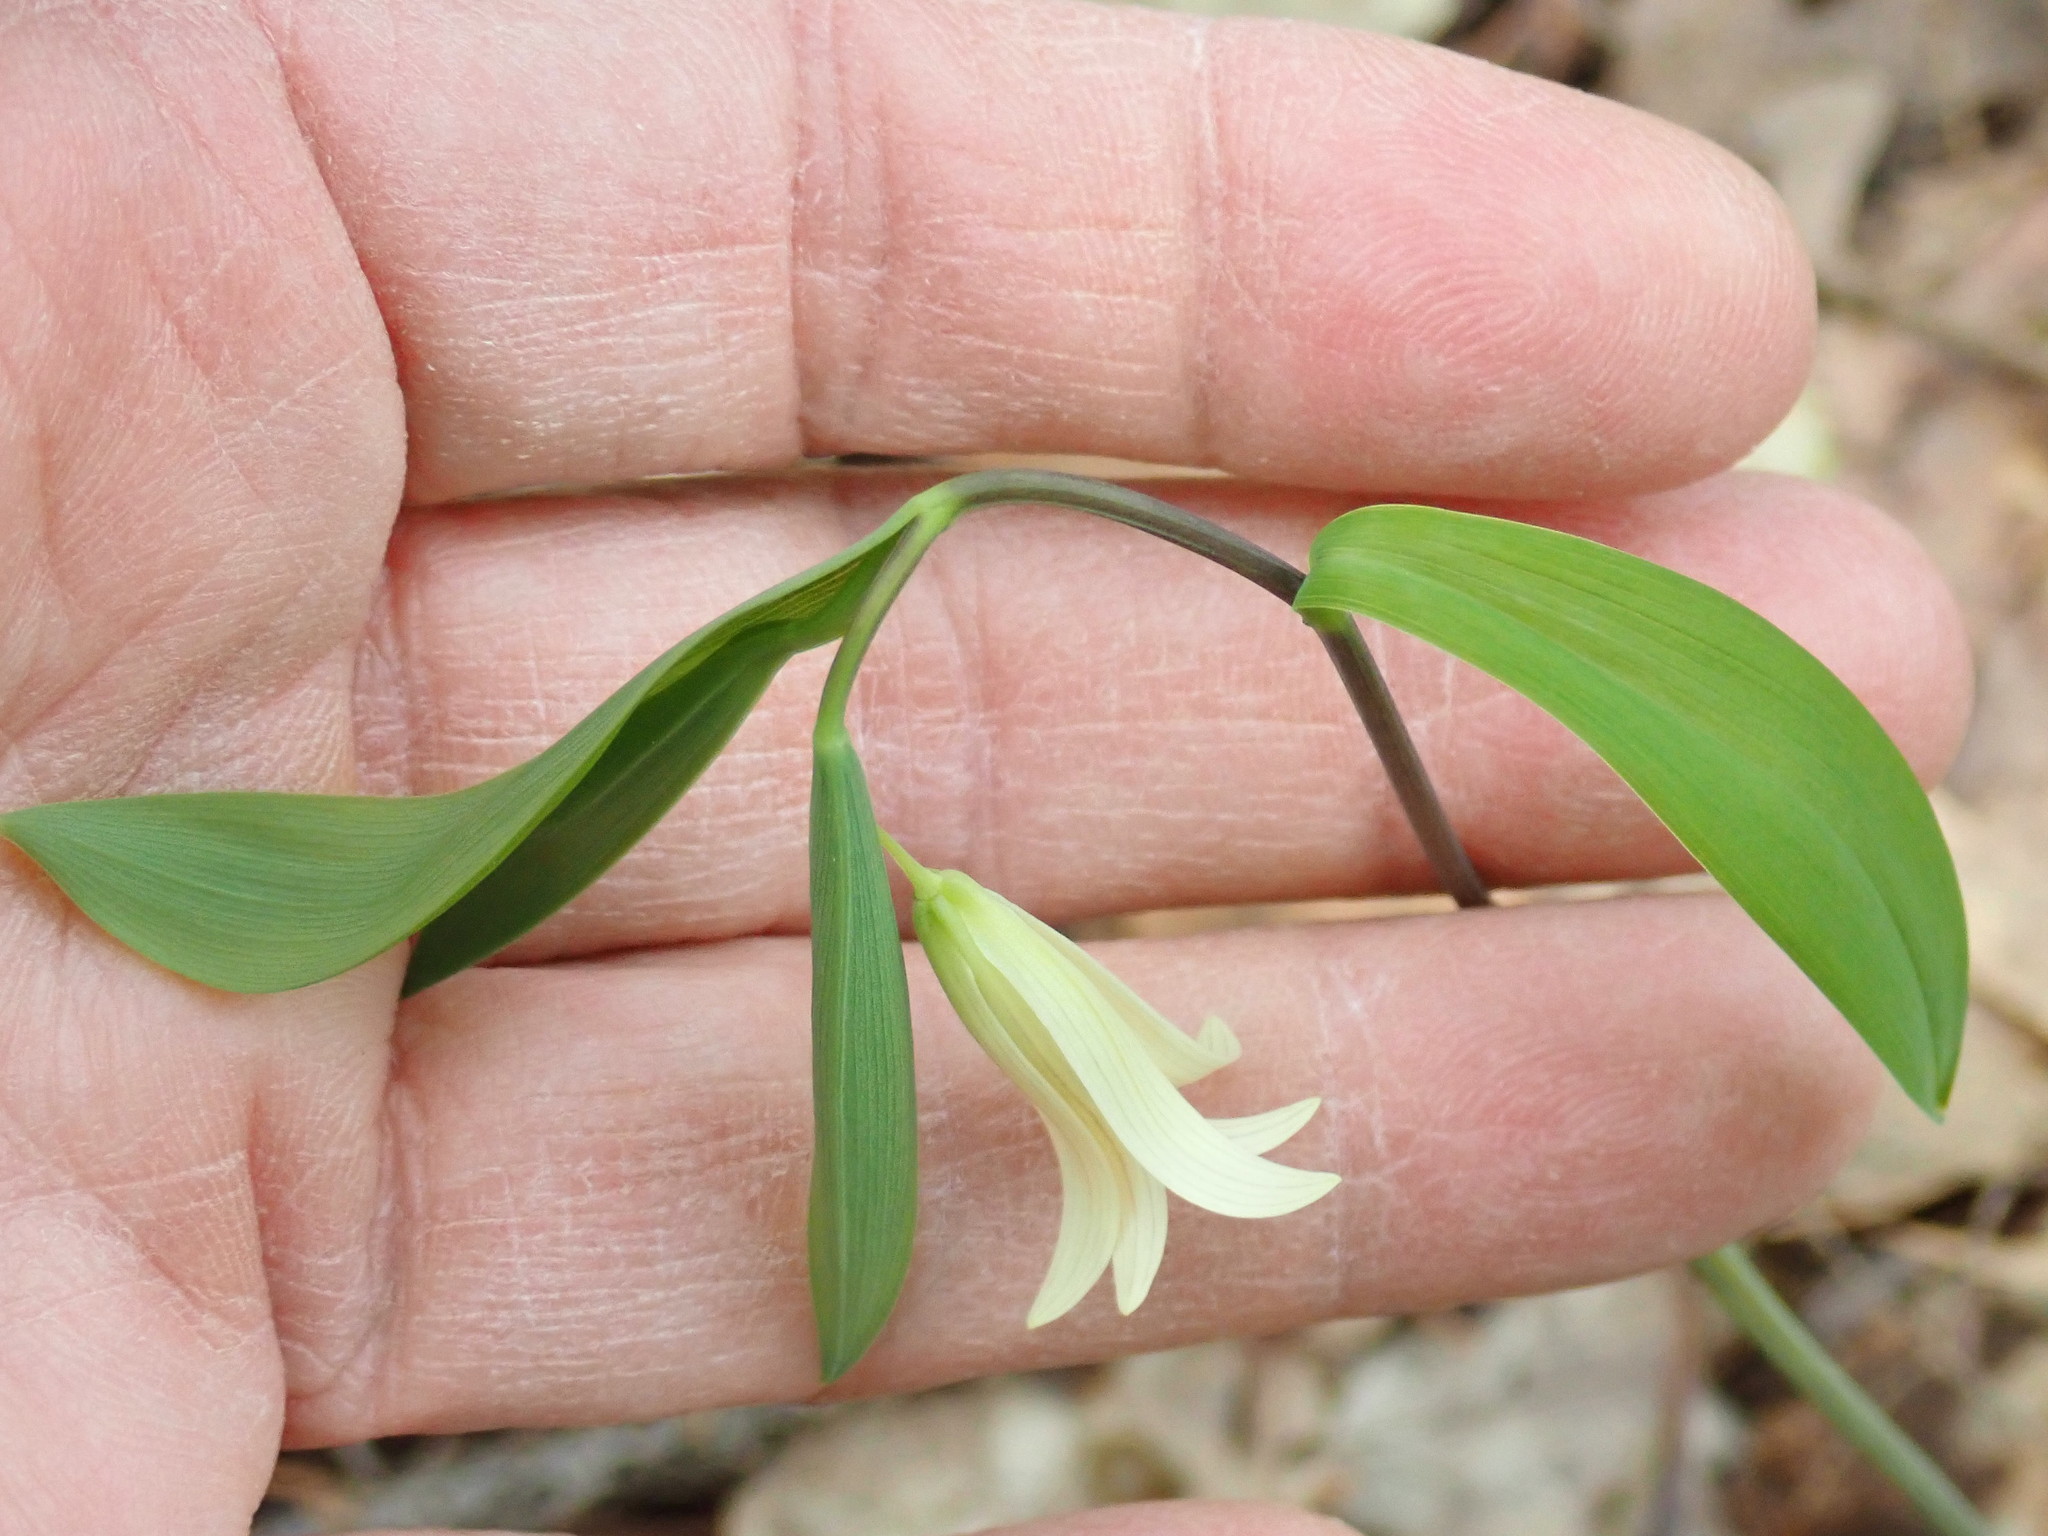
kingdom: Plantae
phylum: Tracheophyta
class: Liliopsida
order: Liliales
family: Colchicaceae
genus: Uvularia
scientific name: Uvularia sessilifolia
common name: Straw-lily
